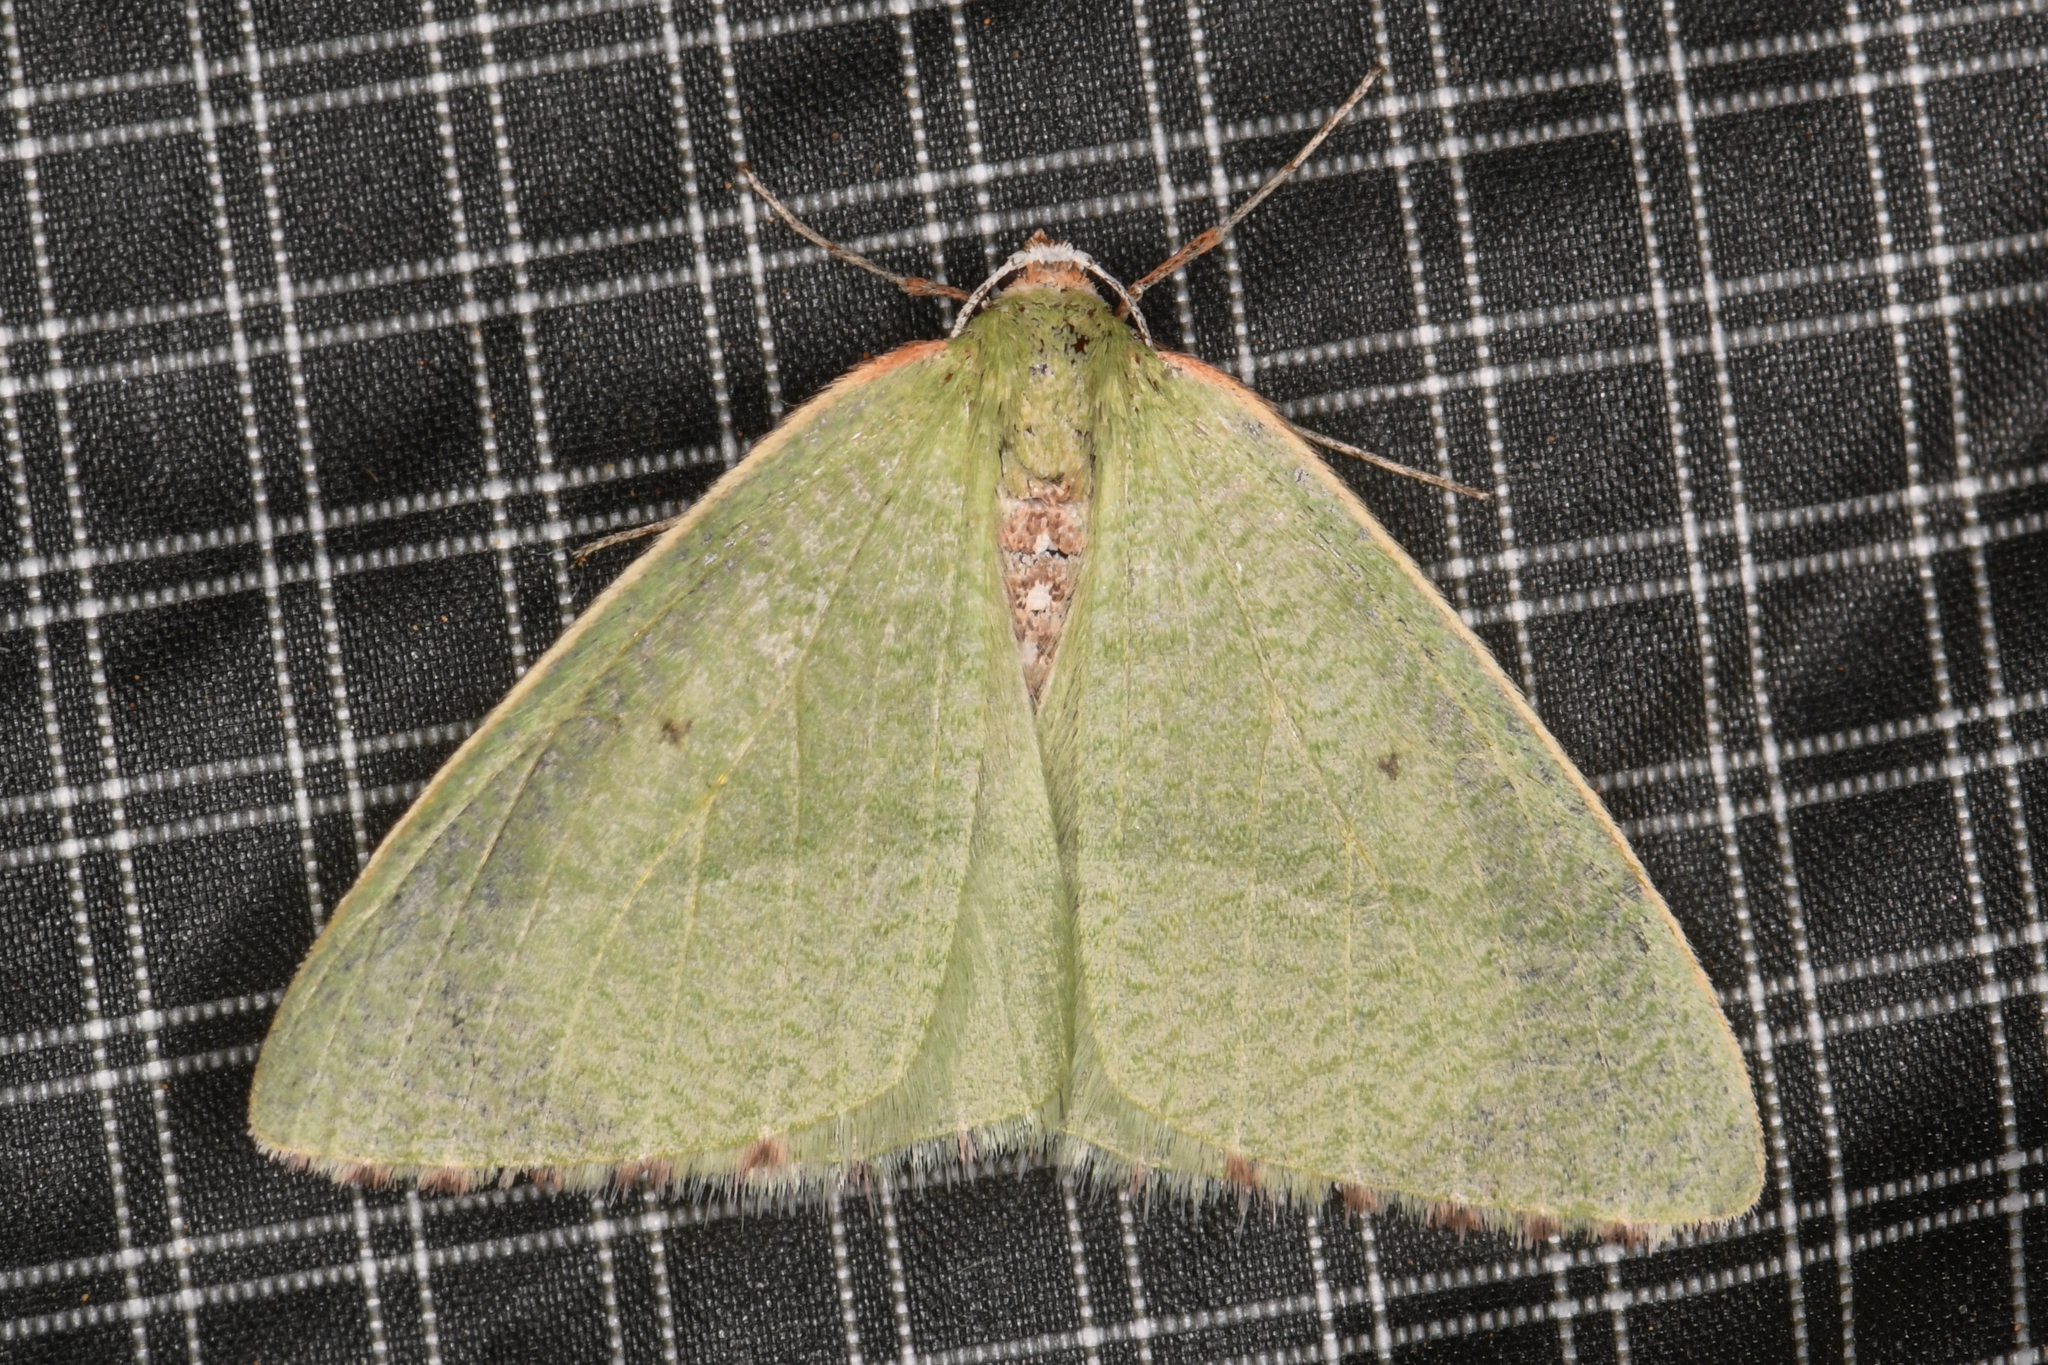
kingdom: Animalia
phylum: Arthropoda
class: Insecta
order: Lepidoptera
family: Geometridae
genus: Nemoria
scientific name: Nemoria pulcherrima
